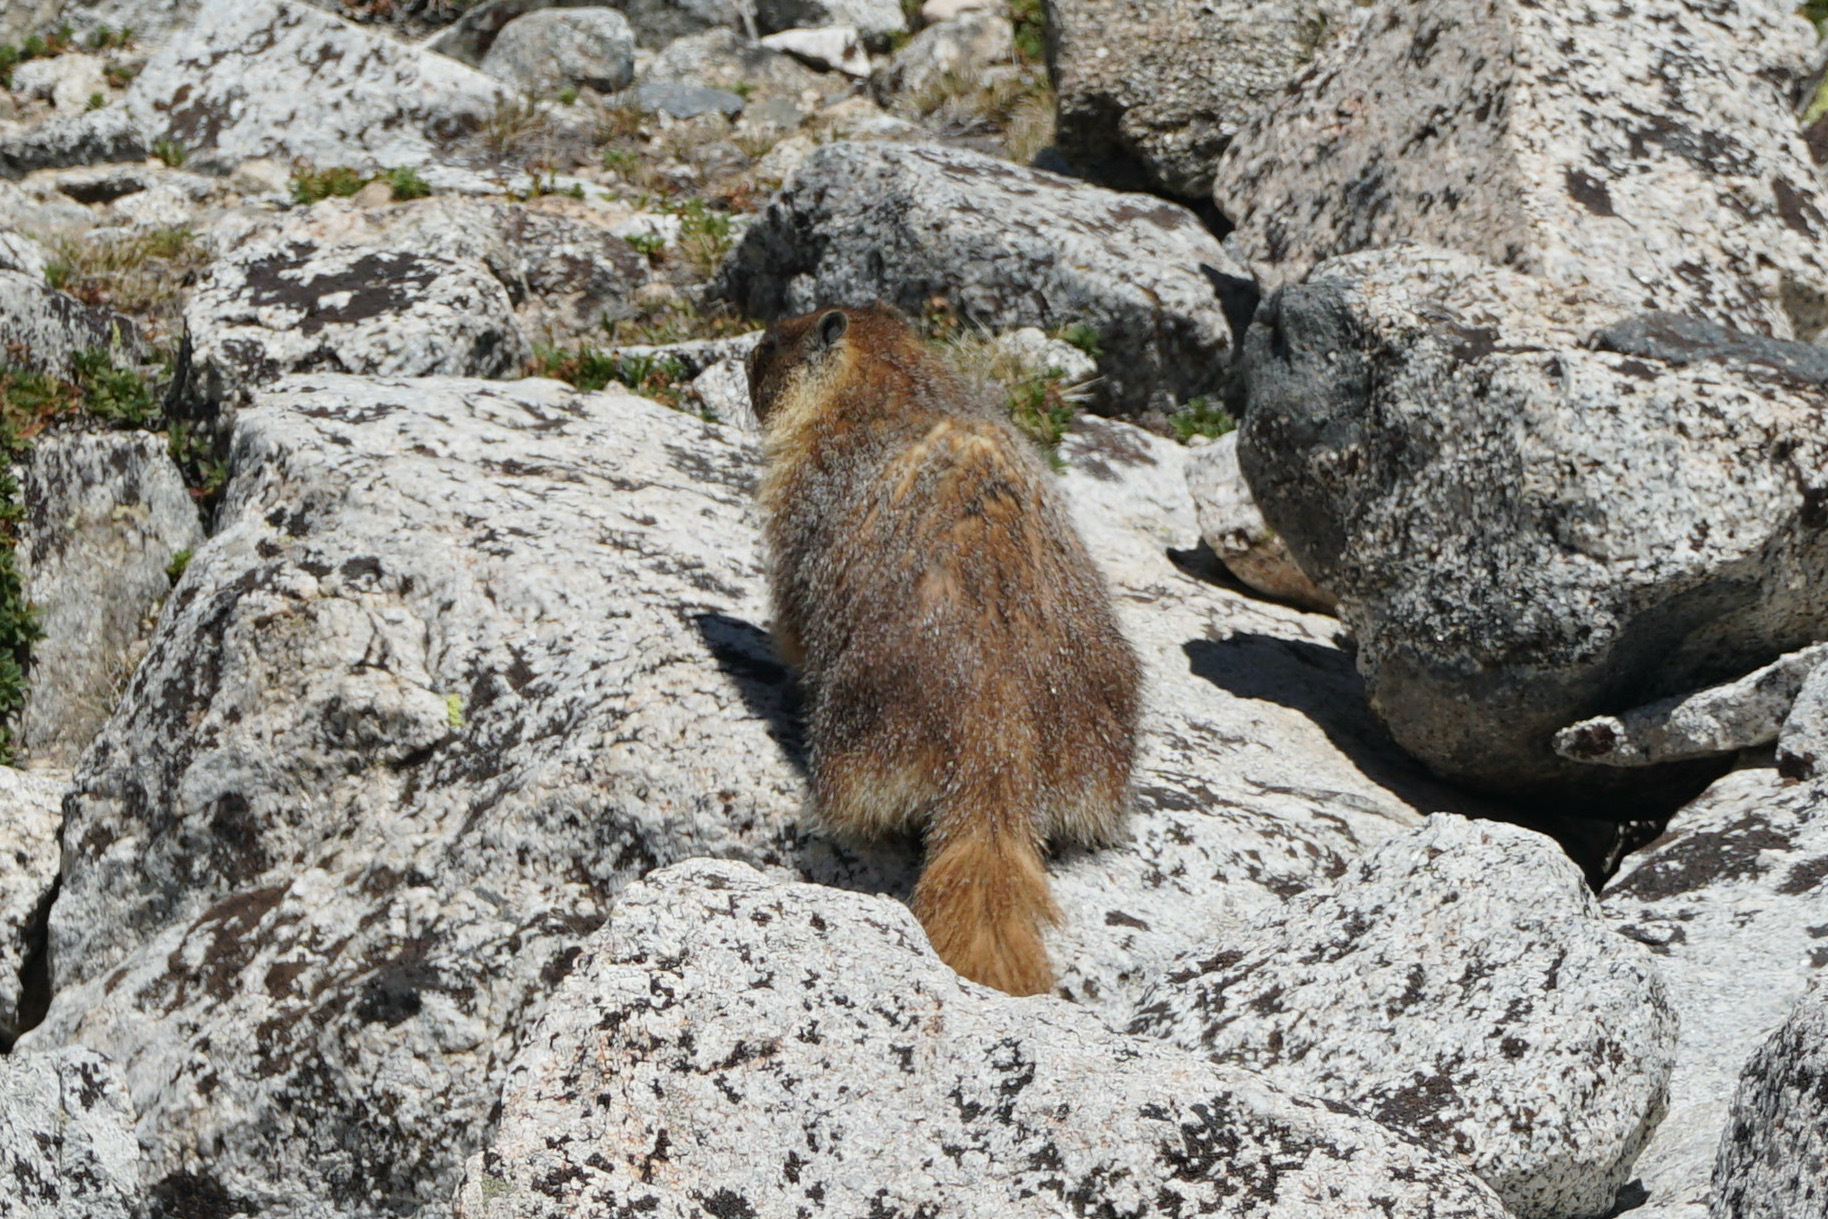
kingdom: Animalia
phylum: Chordata
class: Mammalia
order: Rodentia
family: Sciuridae
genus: Marmota
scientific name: Marmota flaviventris
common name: Yellow-bellied marmot
